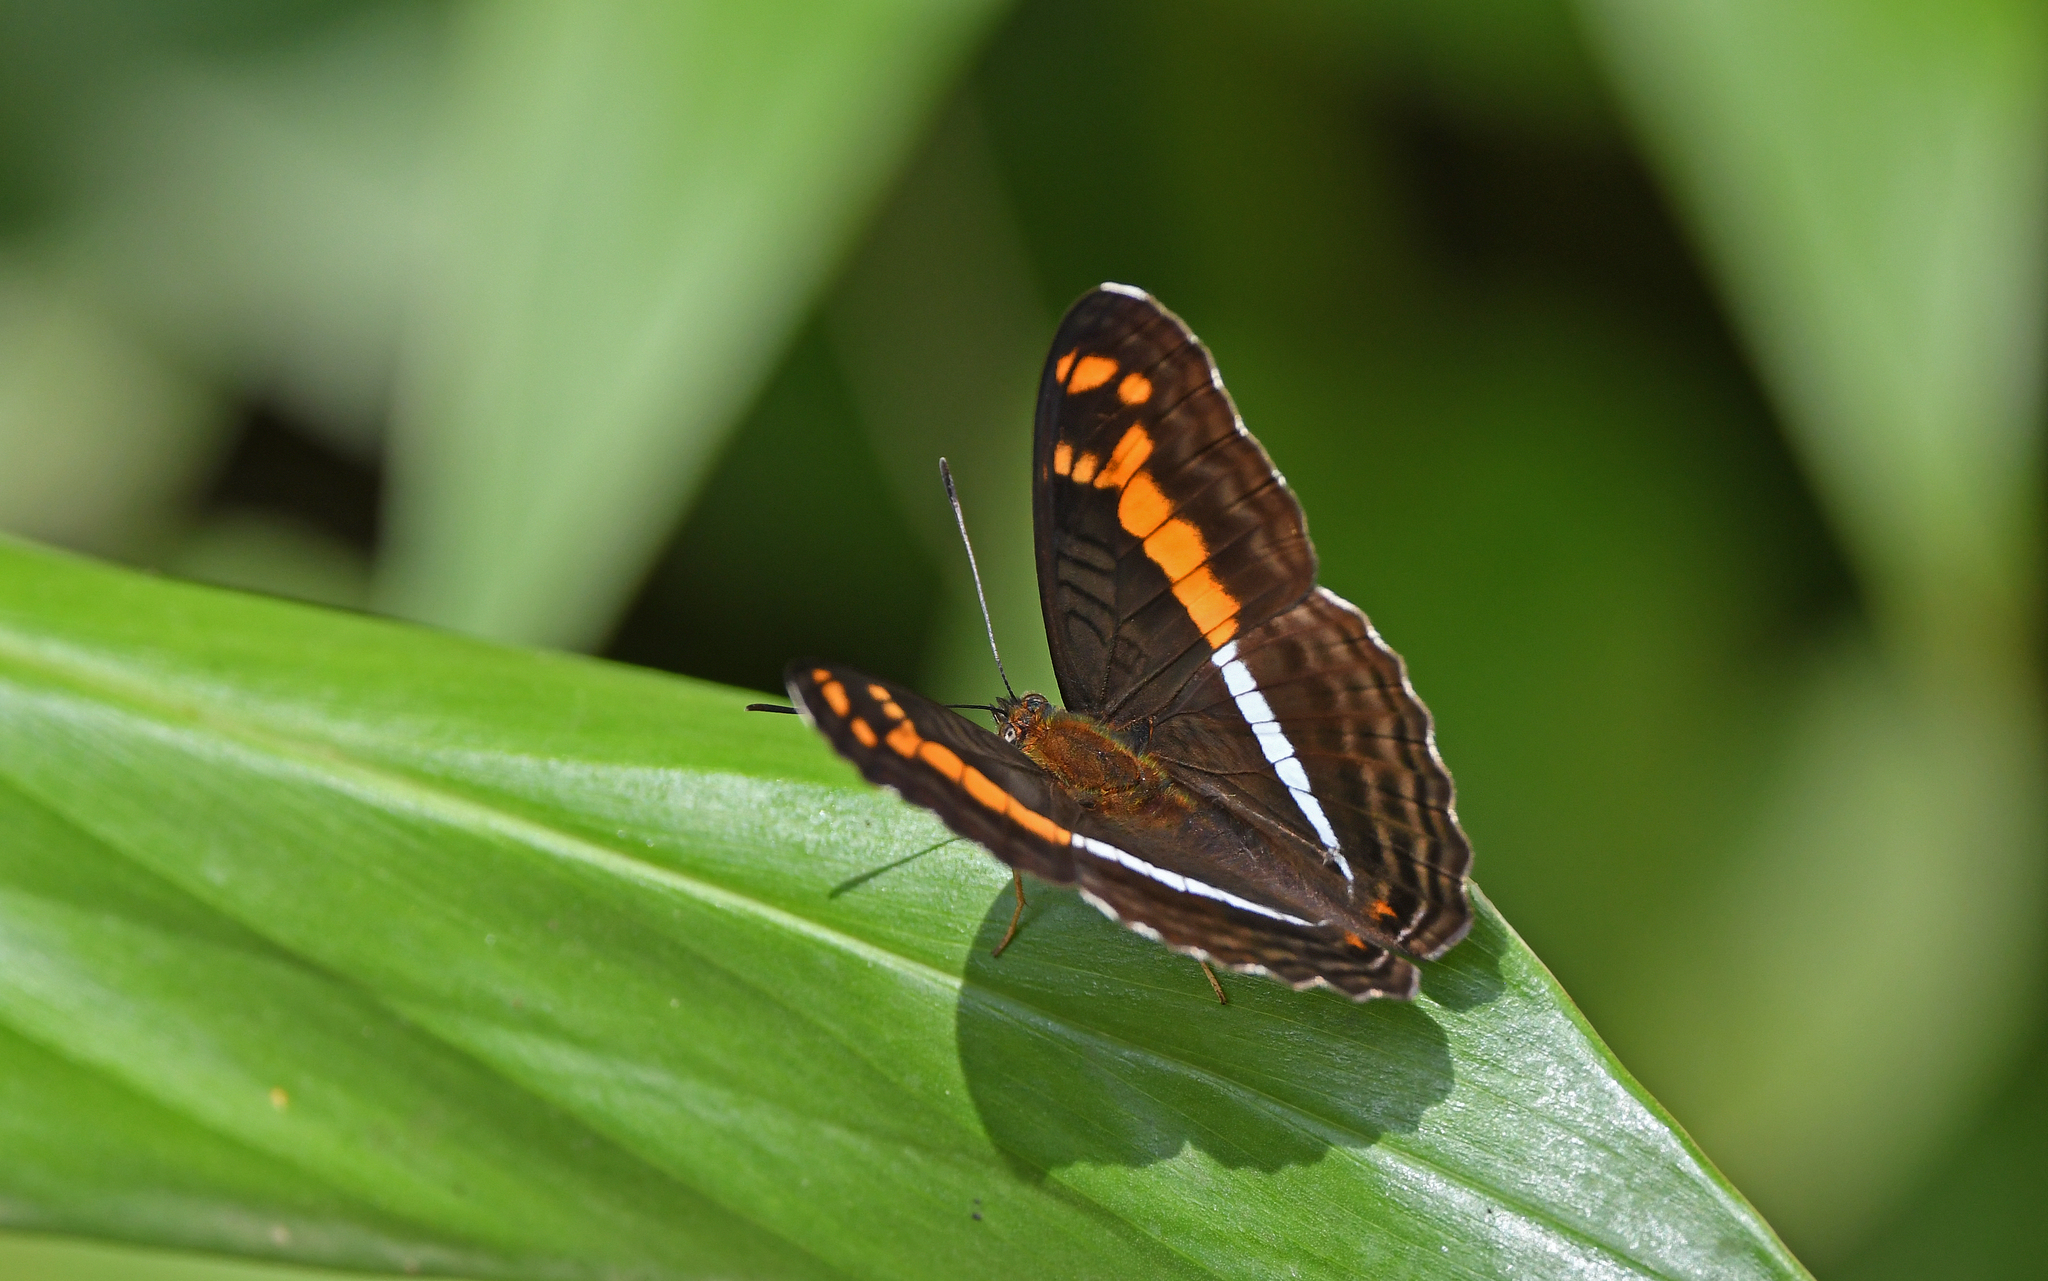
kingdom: Animalia
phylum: Arthropoda
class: Insecta
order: Lepidoptera
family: Nymphalidae
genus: Limenitis
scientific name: Limenitis justina
